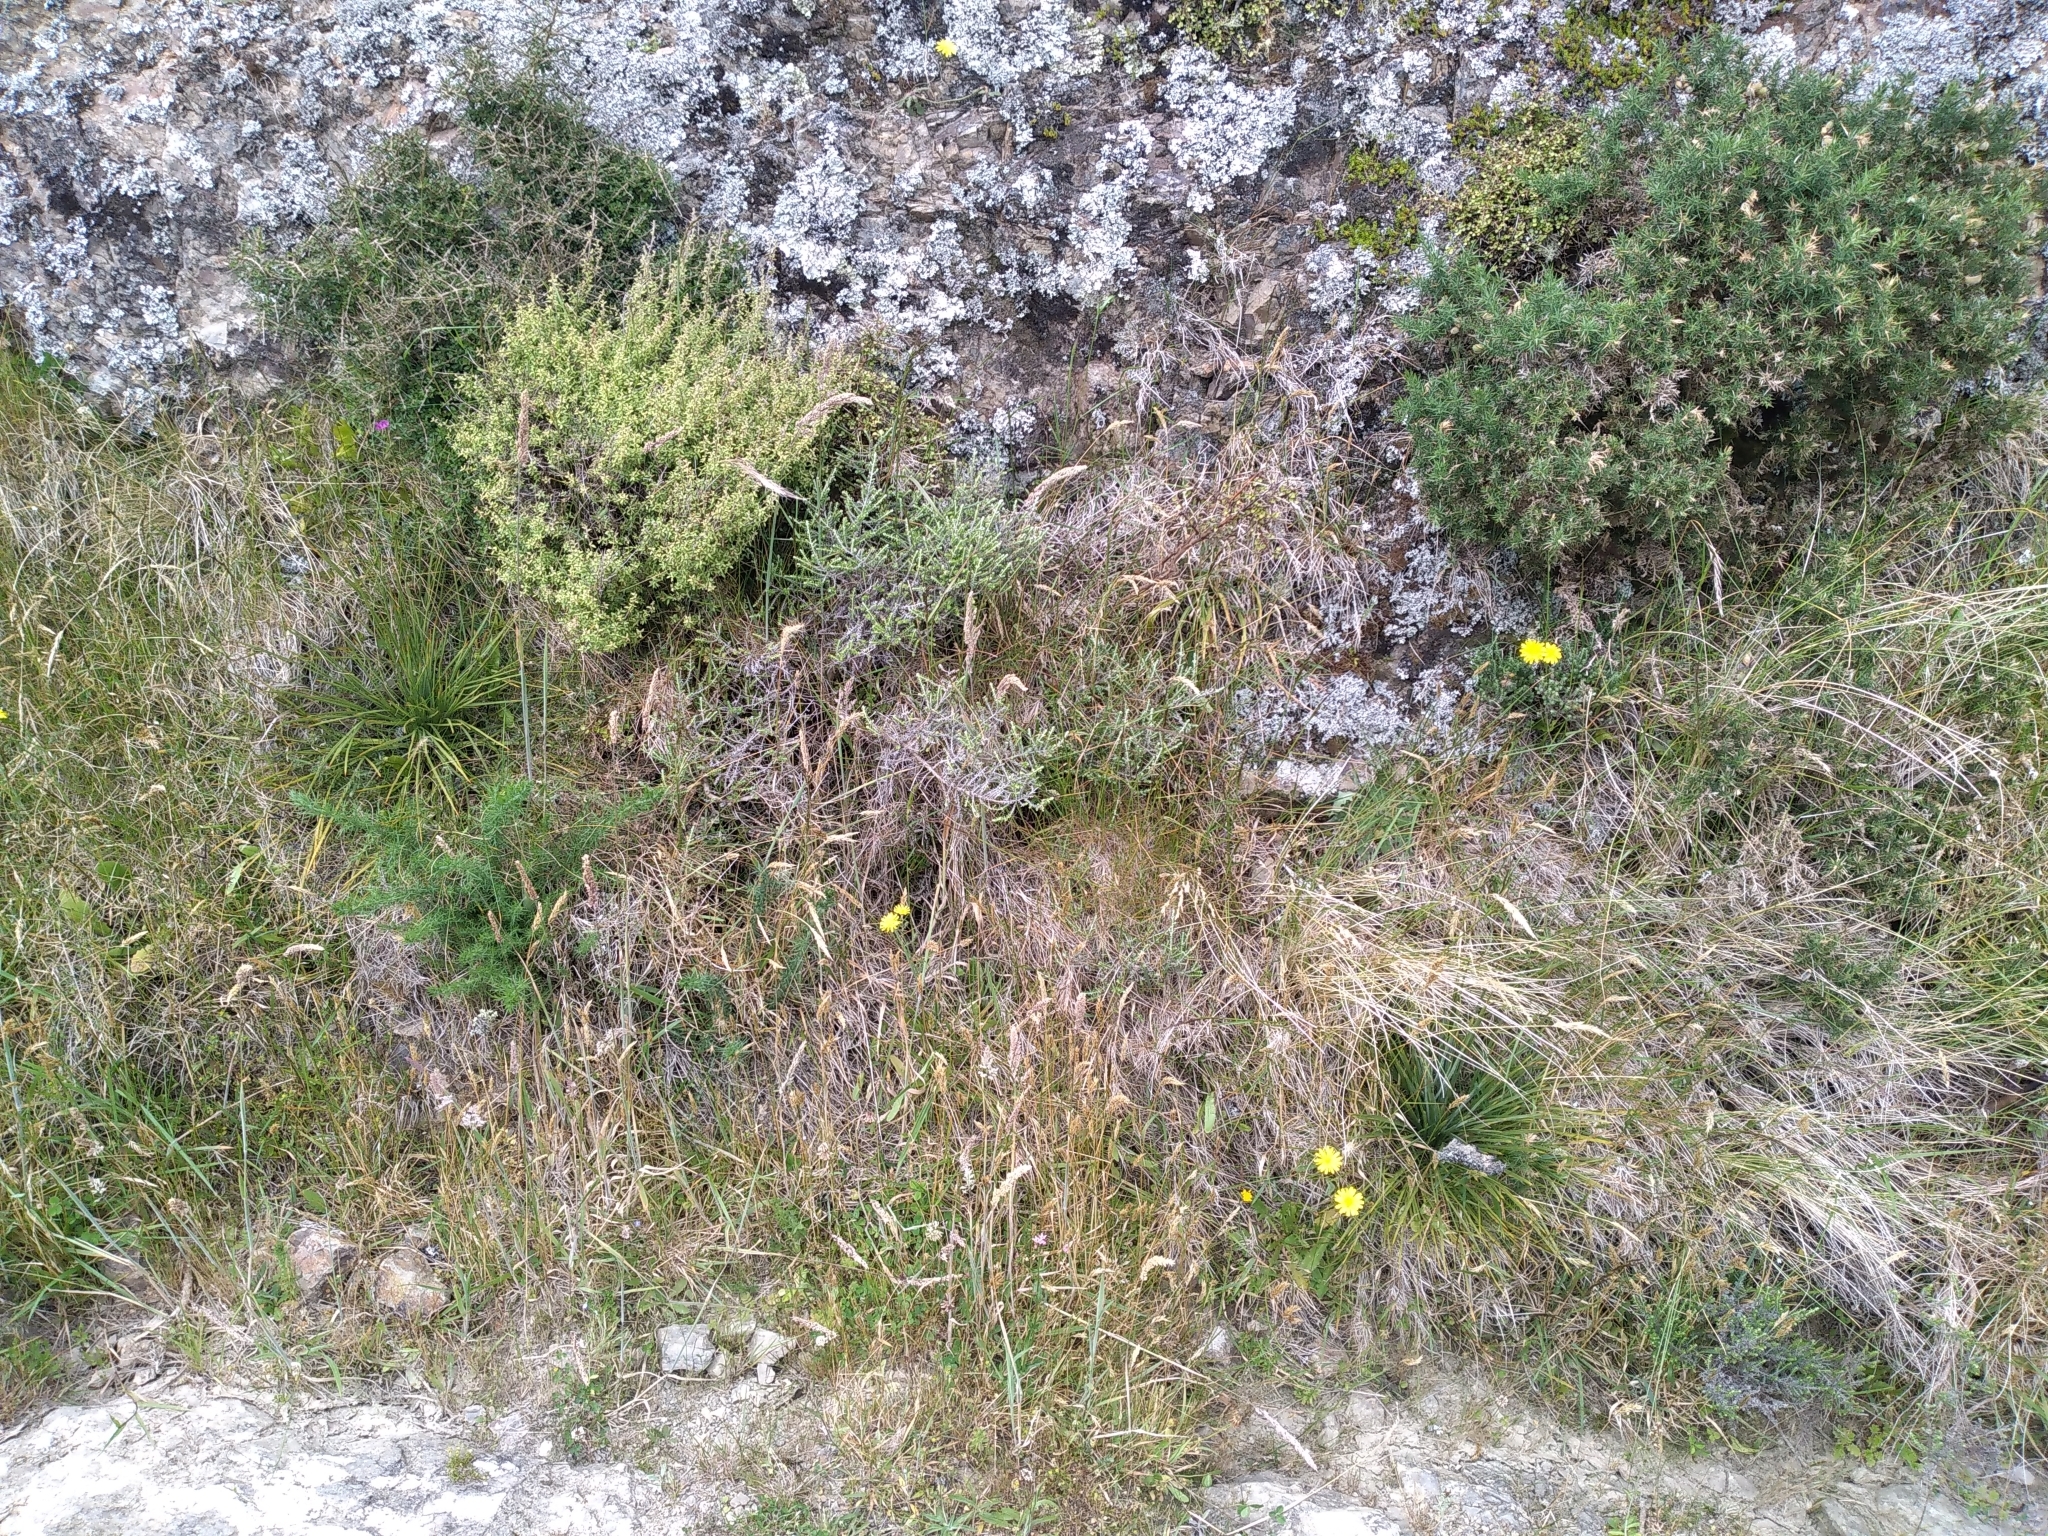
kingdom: Plantae
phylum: Tracheophyta
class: Magnoliopsida
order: Apiales
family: Apiaceae
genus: Aciphylla
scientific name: Aciphylla squarrosa
